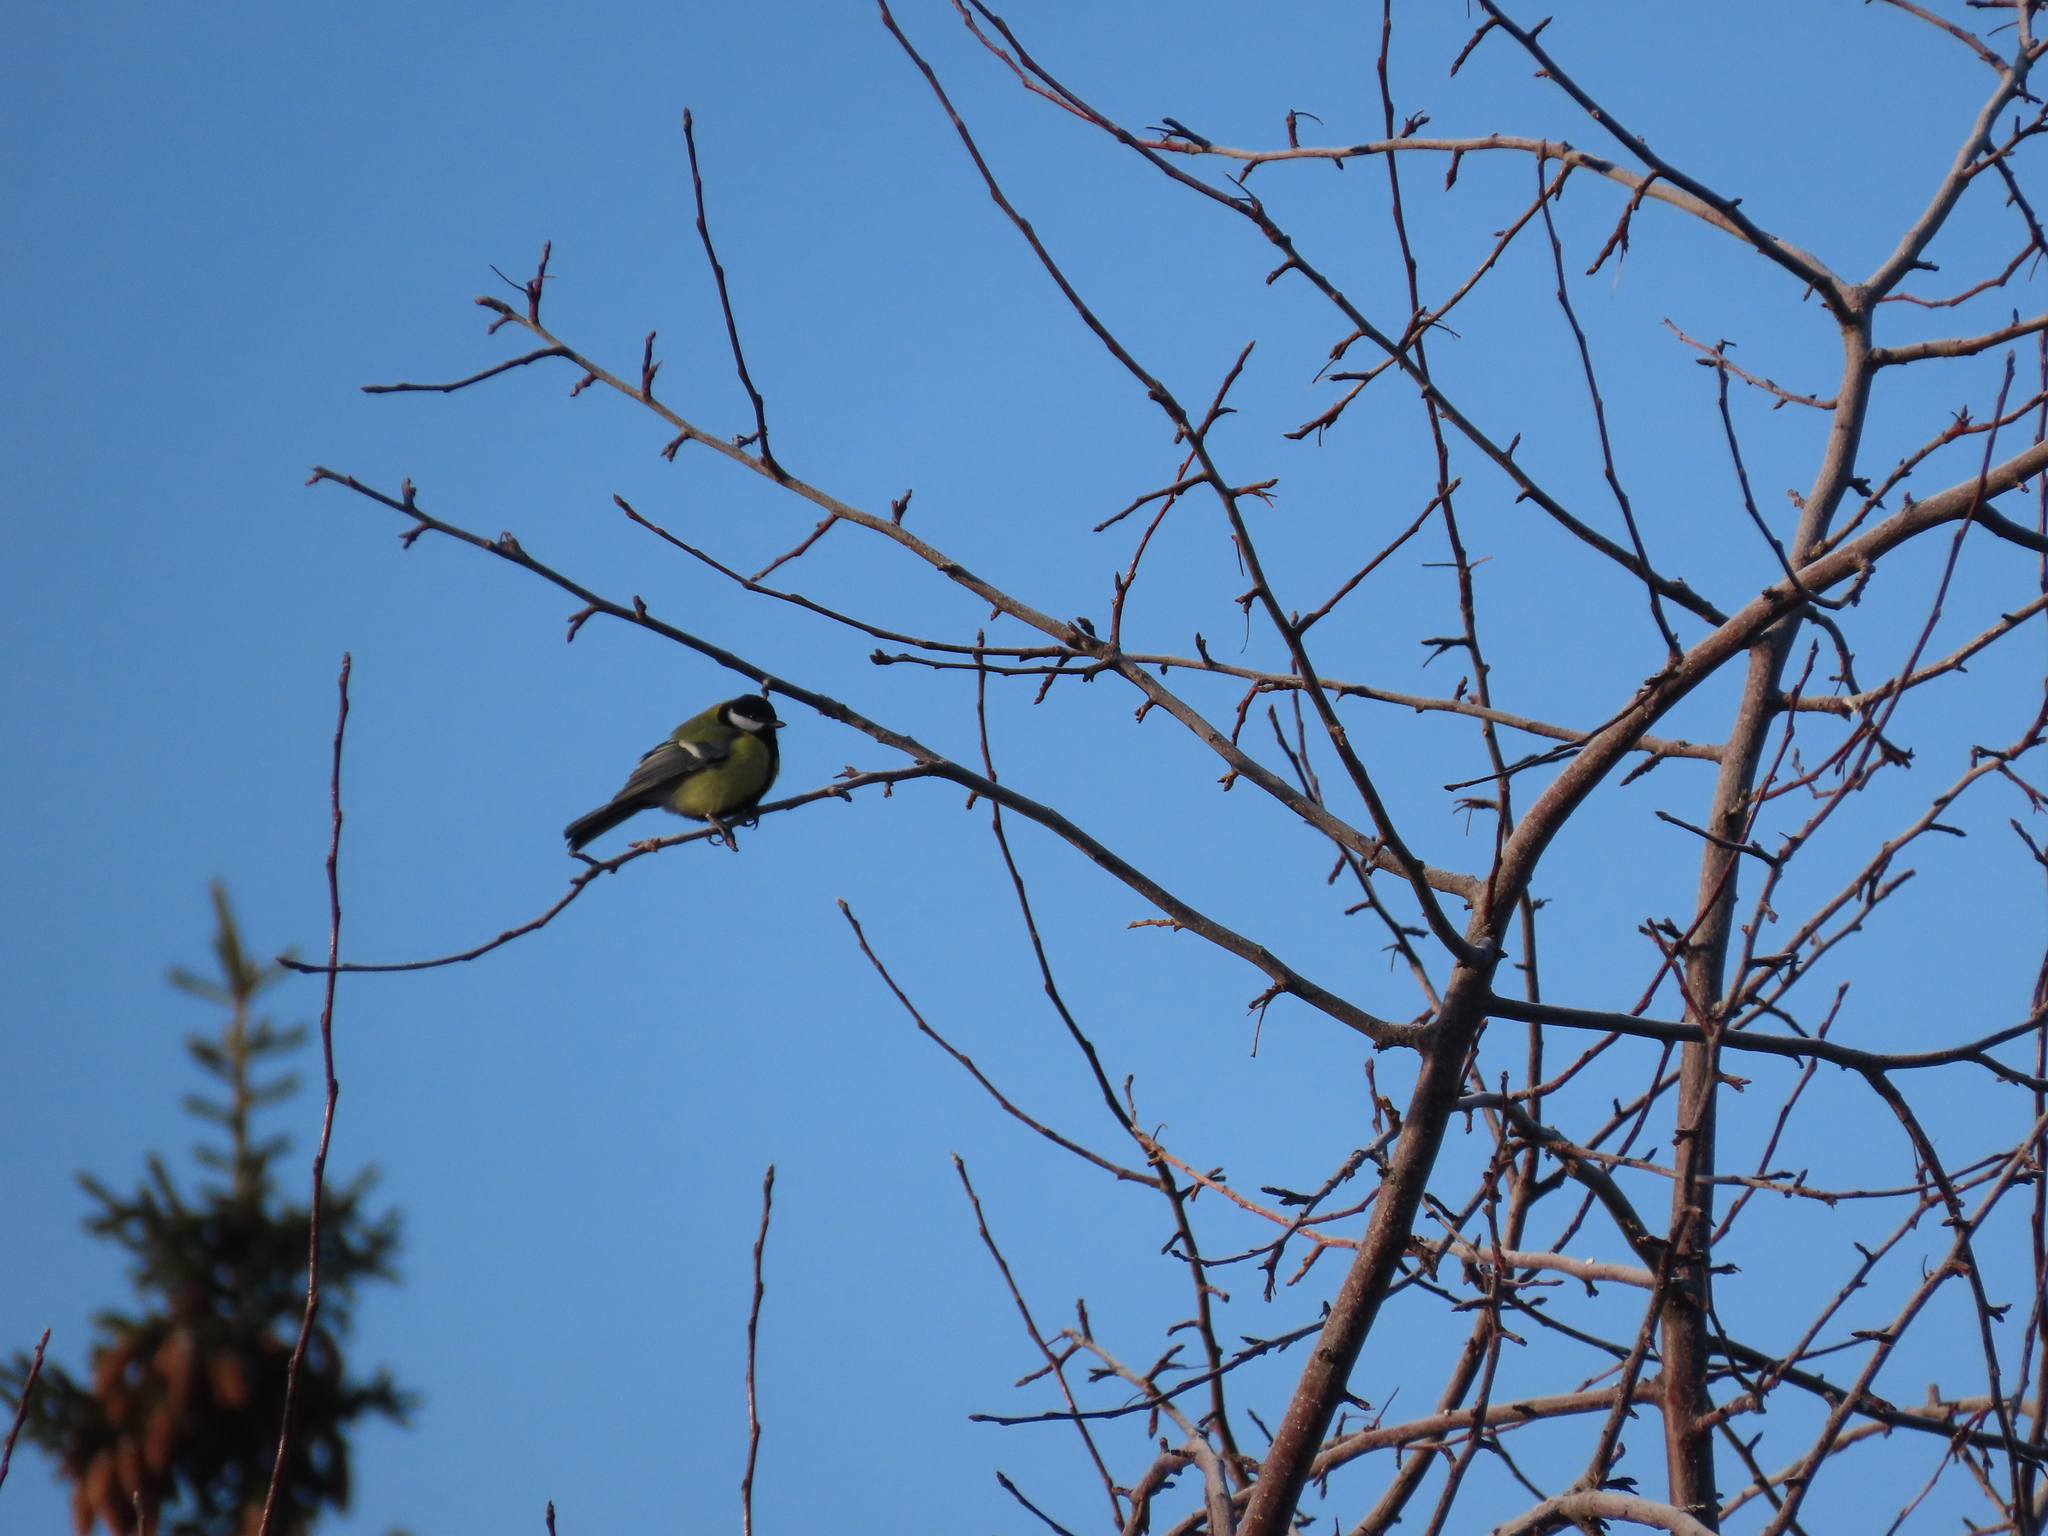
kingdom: Animalia
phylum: Chordata
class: Aves
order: Passeriformes
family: Paridae
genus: Parus
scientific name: Parus major
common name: Great tit
